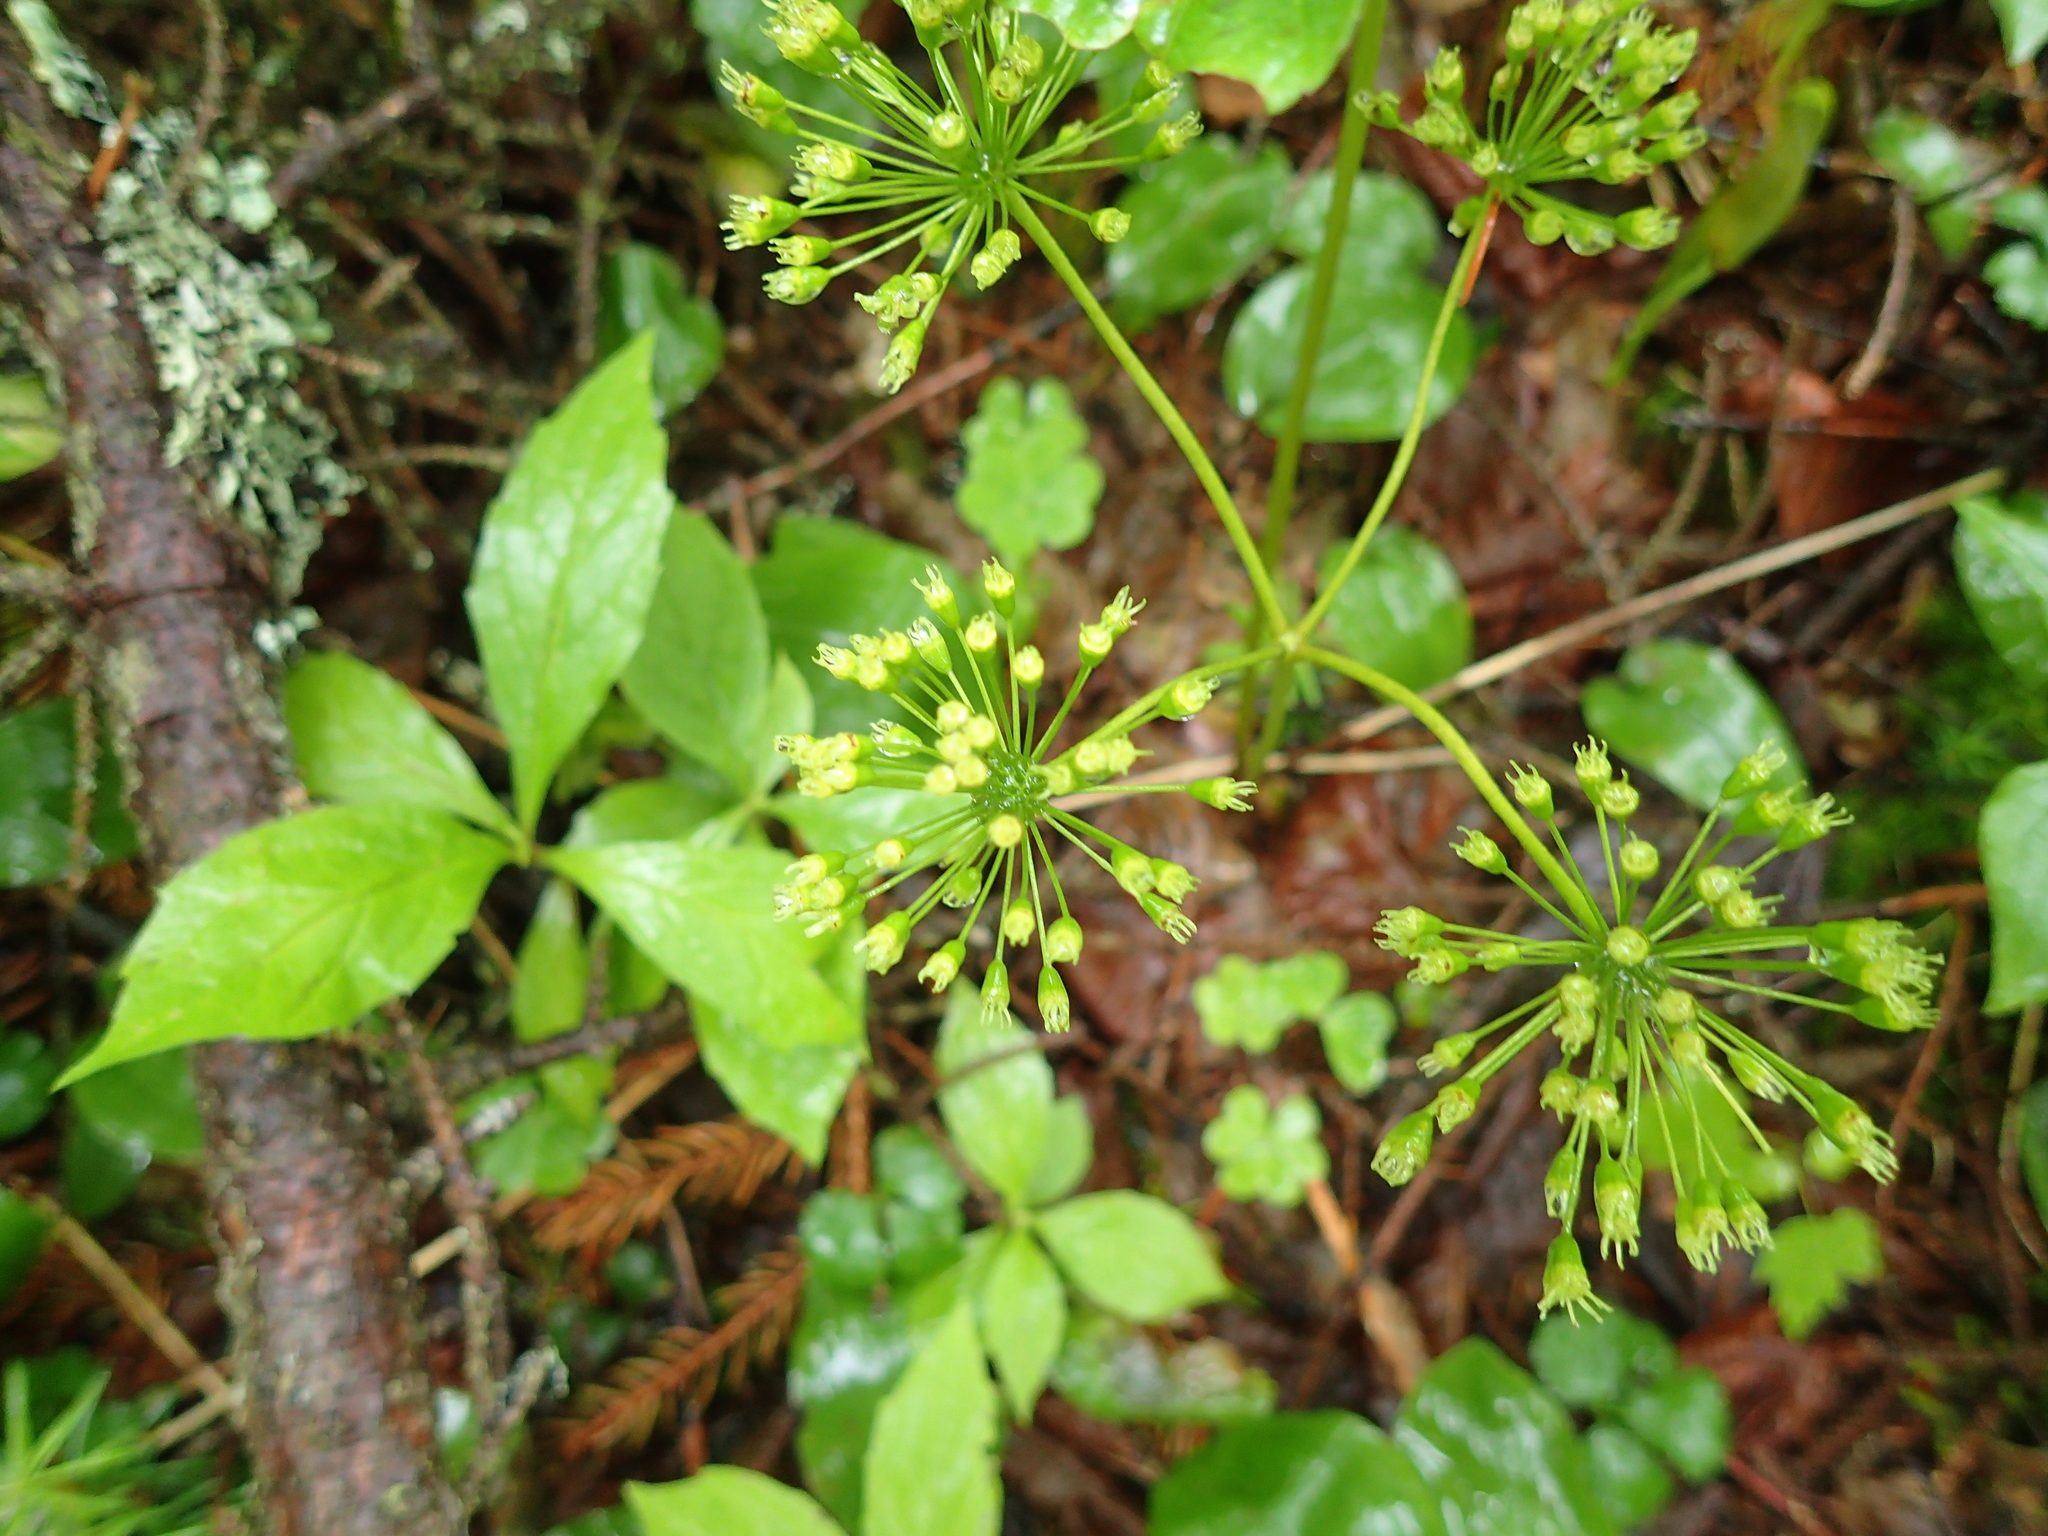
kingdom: Plantae
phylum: Tracheophyta
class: Magnoliopsida
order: Apiales
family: Araliaceae
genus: Aralia
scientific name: Aralia nudicaulis
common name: Wild sarsaparilla
